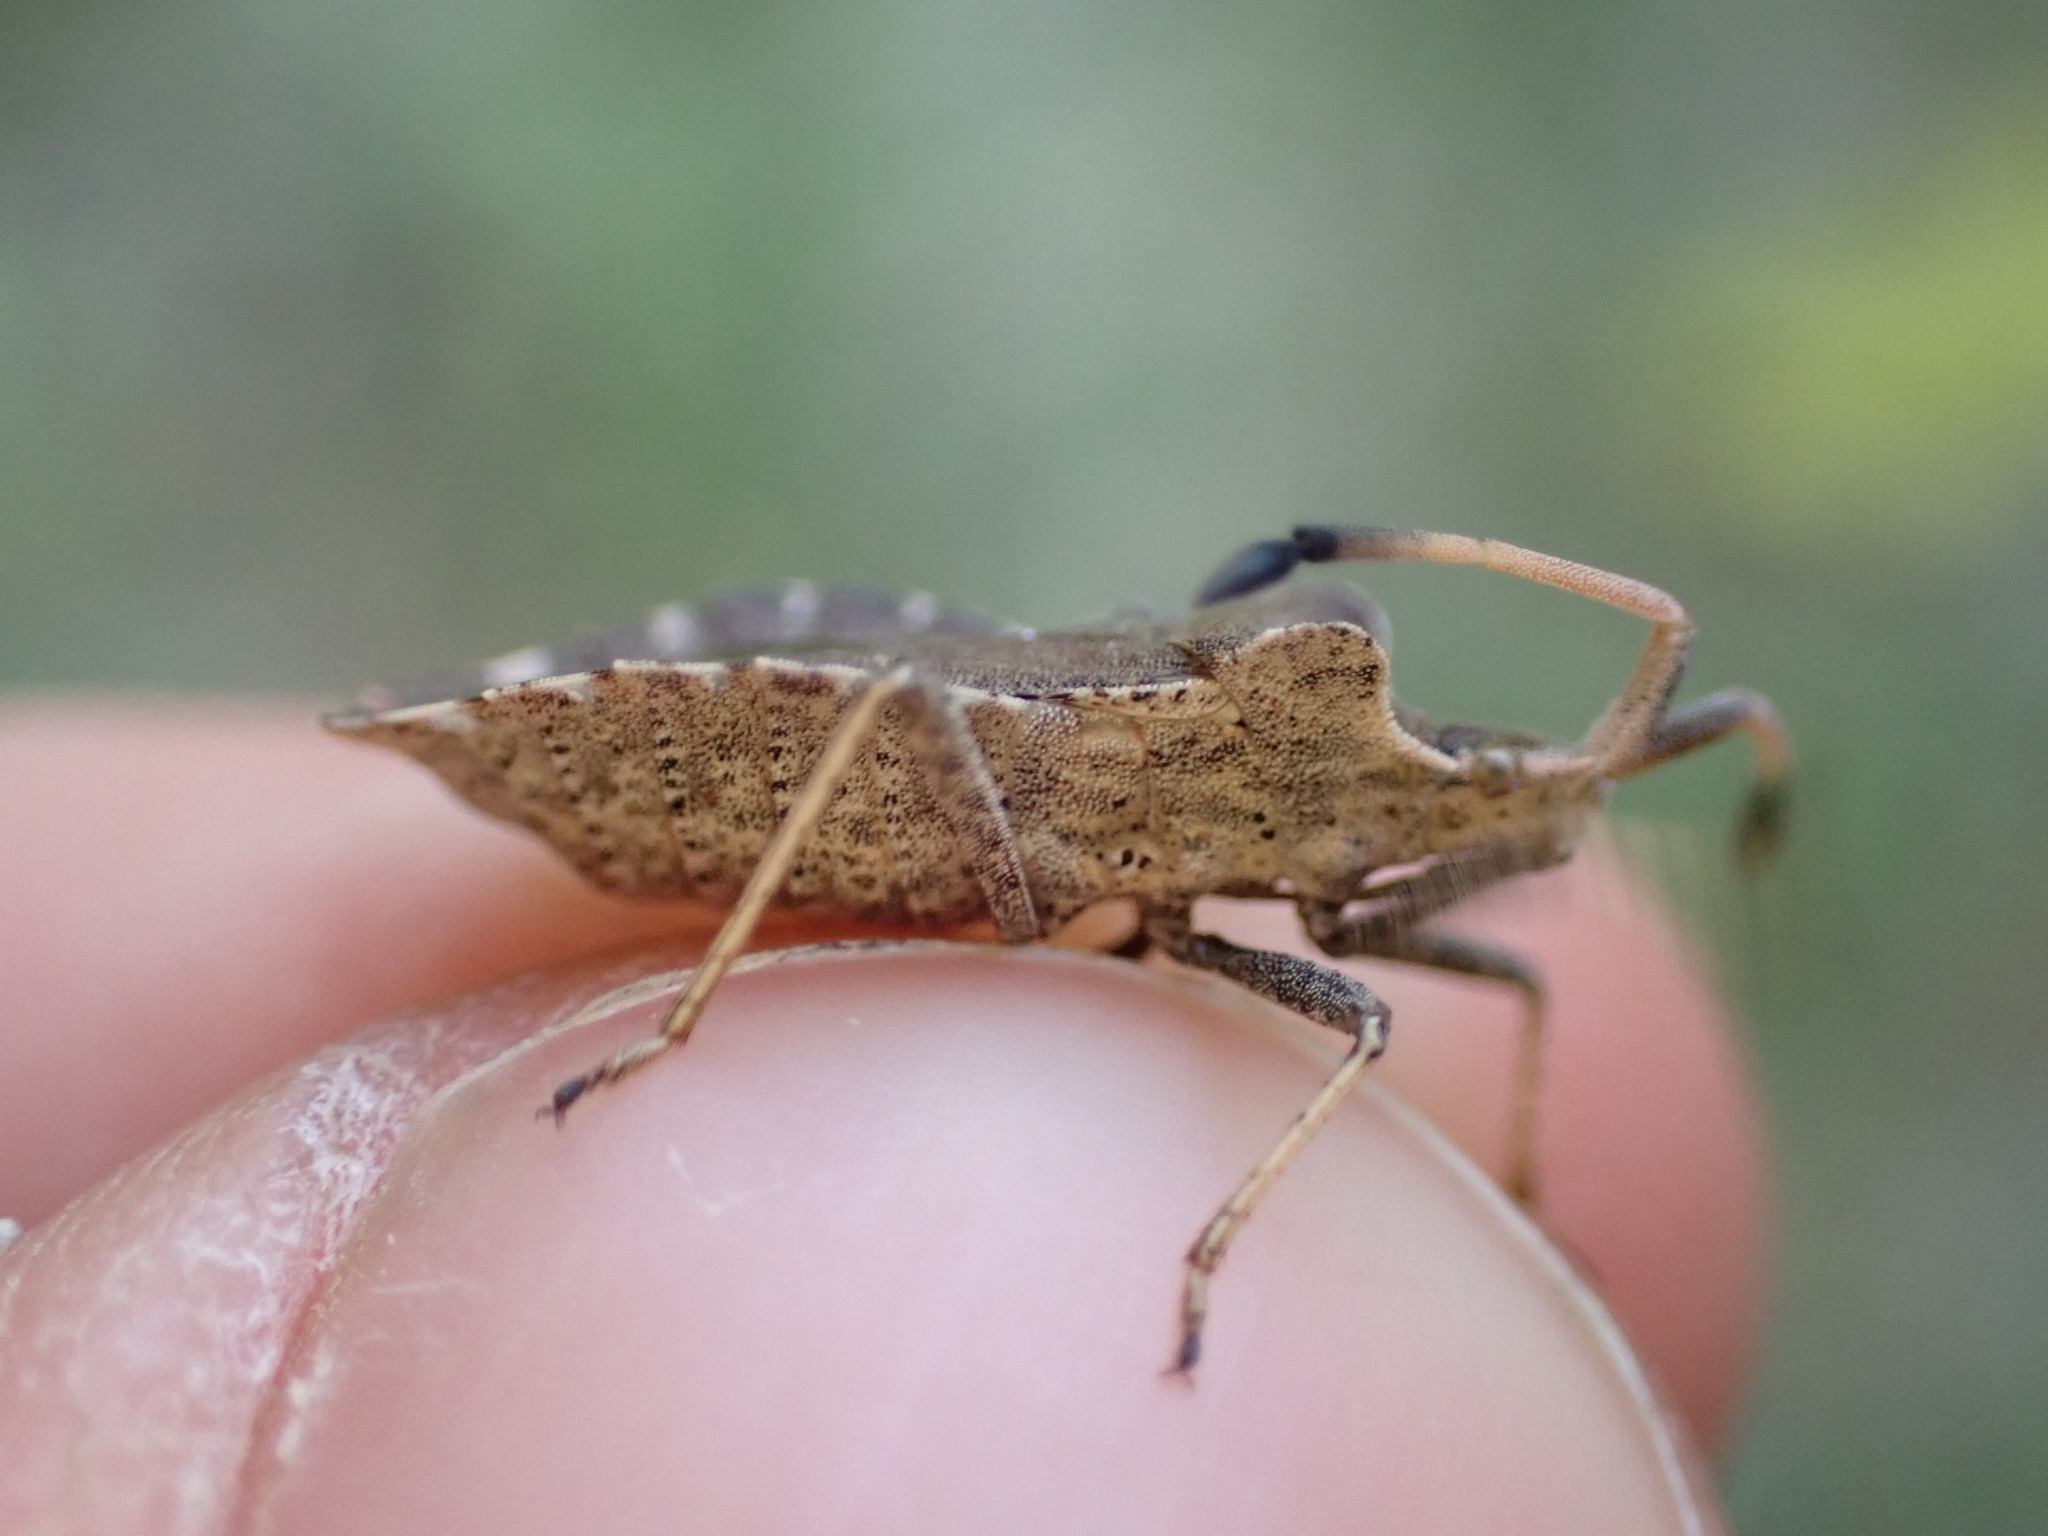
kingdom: Animalia
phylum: Arthropoda
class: Insecta
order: Hemiptera
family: Coreidae
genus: Enoplops
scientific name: Enoplops scapha
